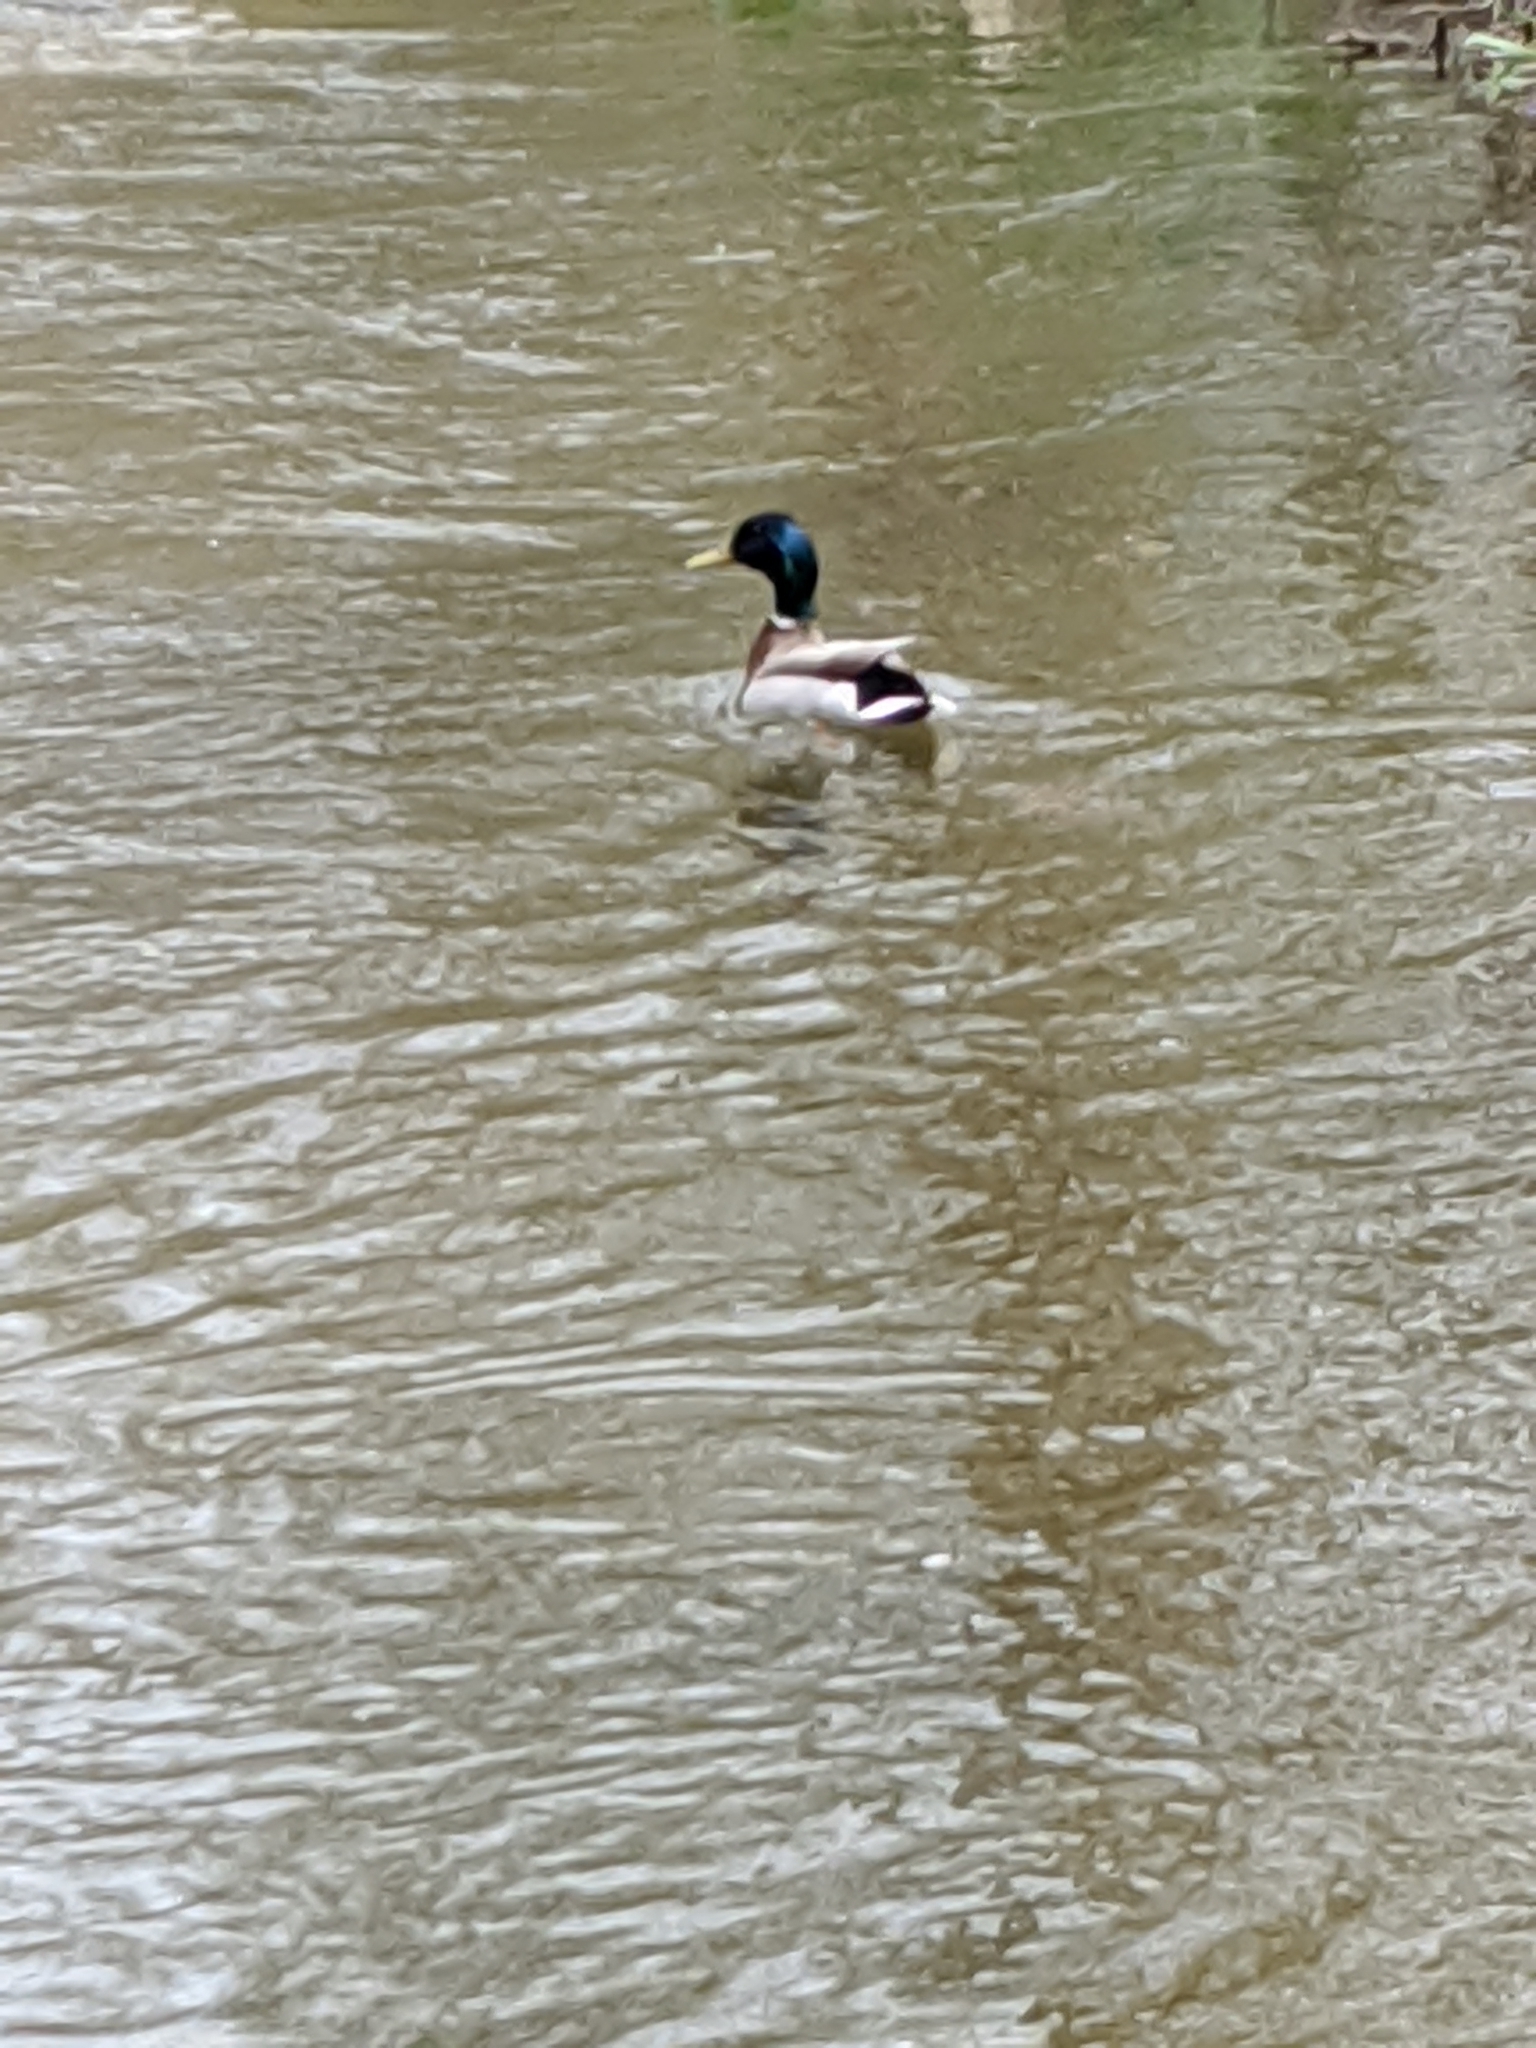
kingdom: Animalia
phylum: Chordata
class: Aves
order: Anseriformes
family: Anatidae
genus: Anas
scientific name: Anas platyrhynchos
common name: Mallard
